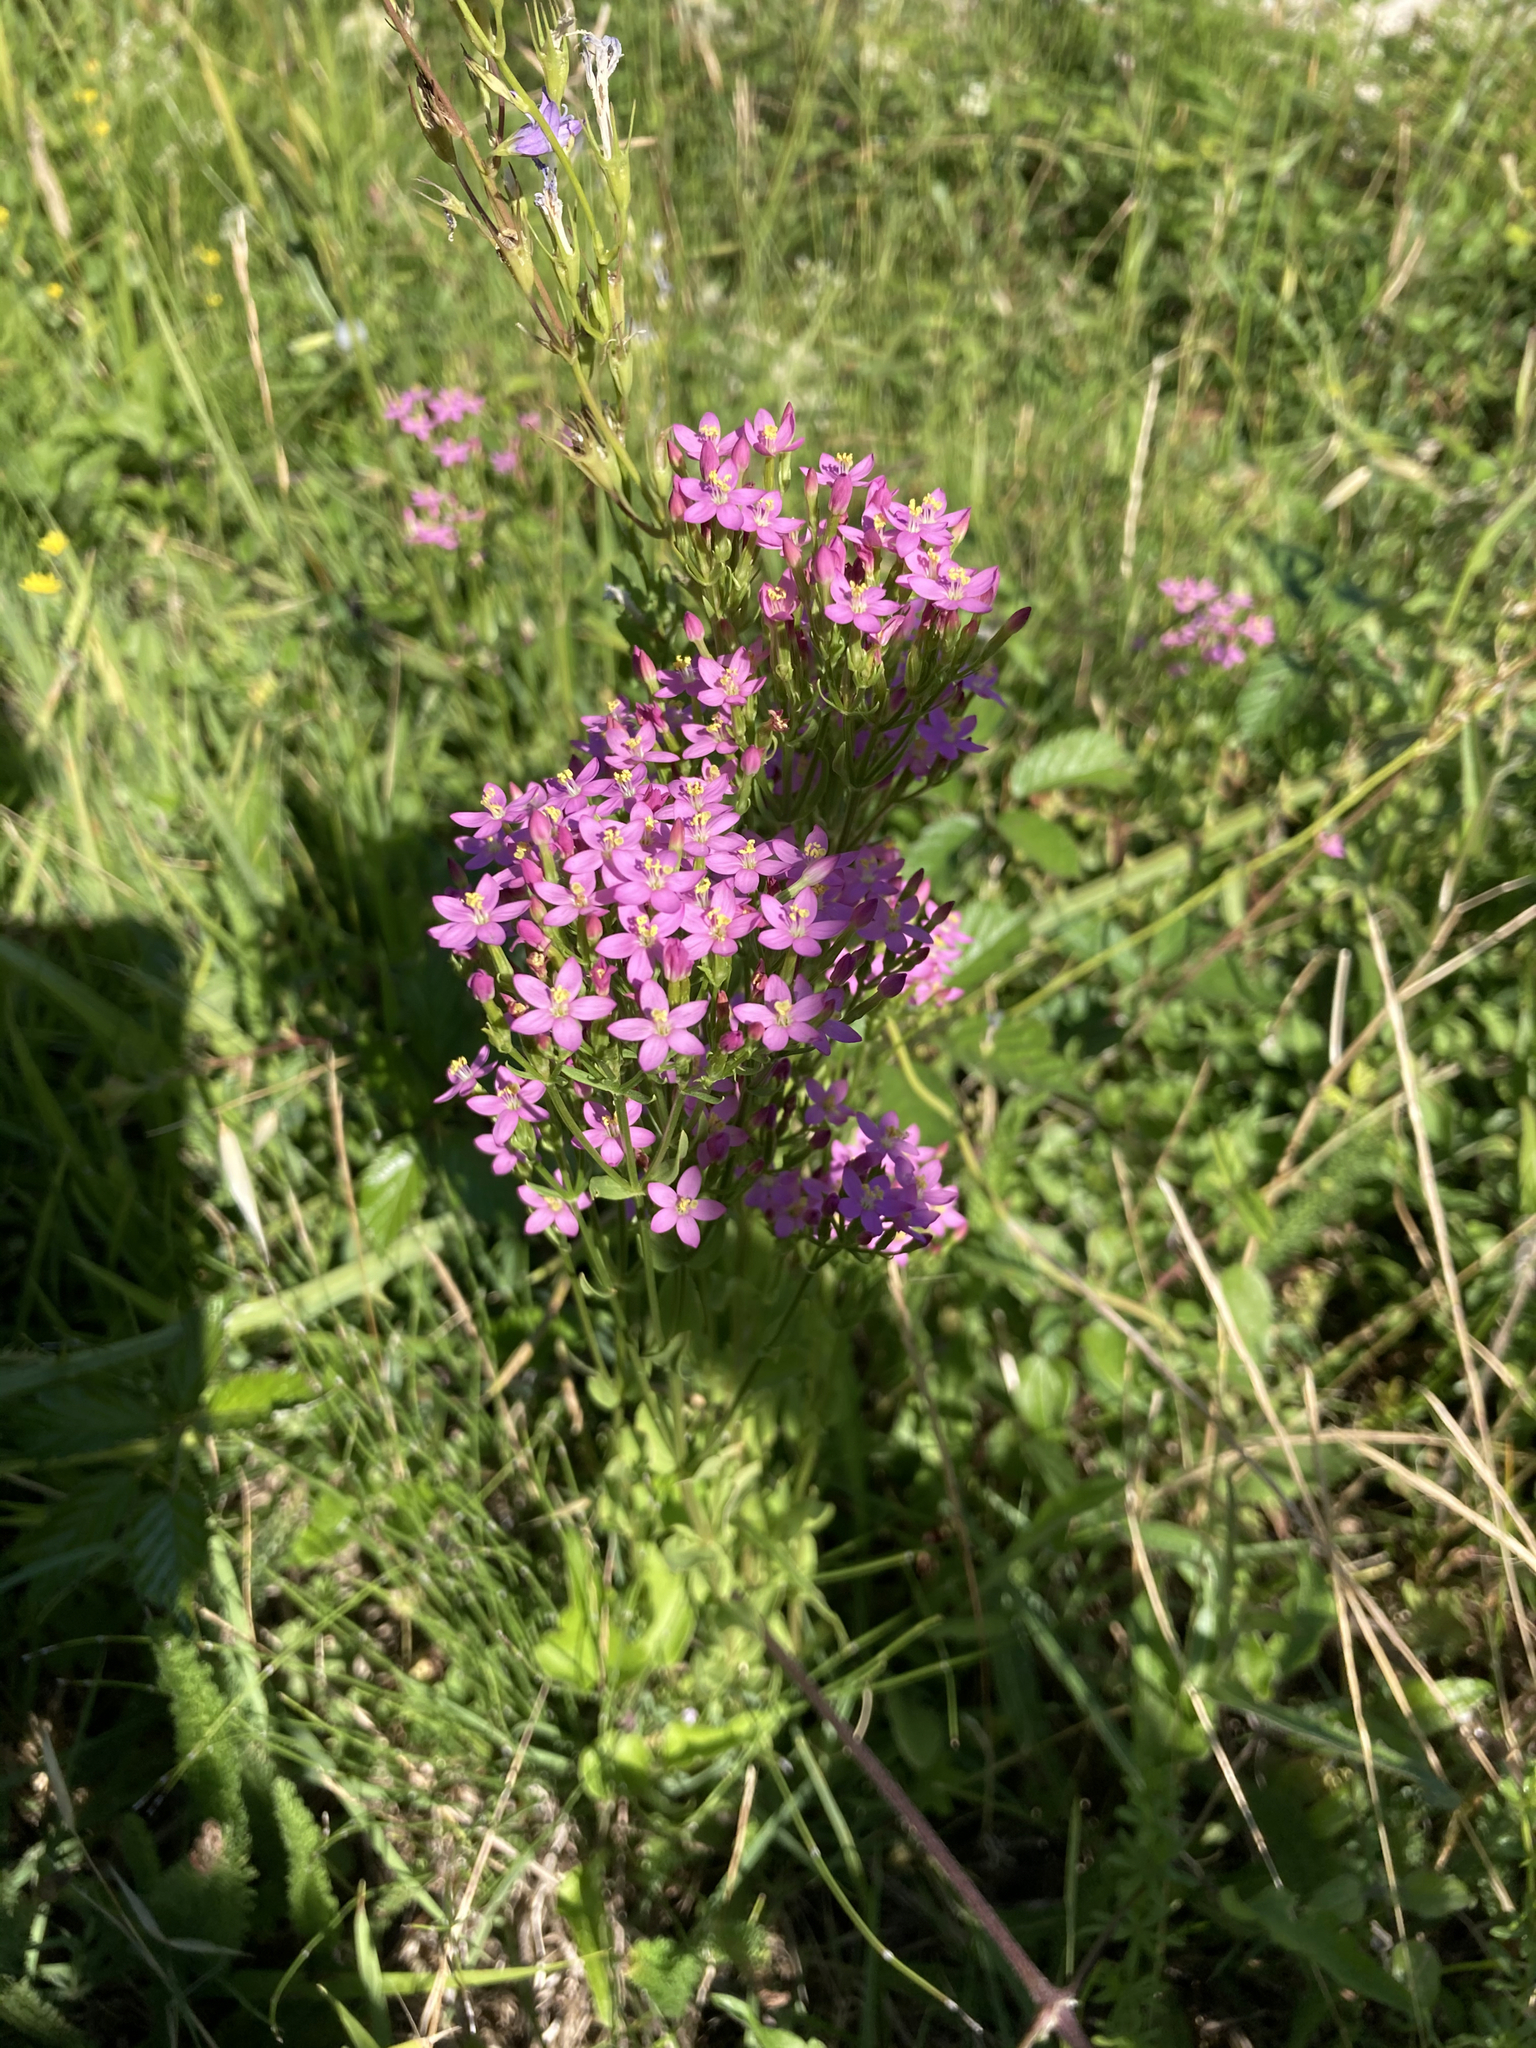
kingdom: Plantae
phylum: Tracheophyta
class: Magnoliopsida
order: Gentianales
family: Gentianaceae
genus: Centaurium
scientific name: Centaurium erythraea
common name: Common centaury
